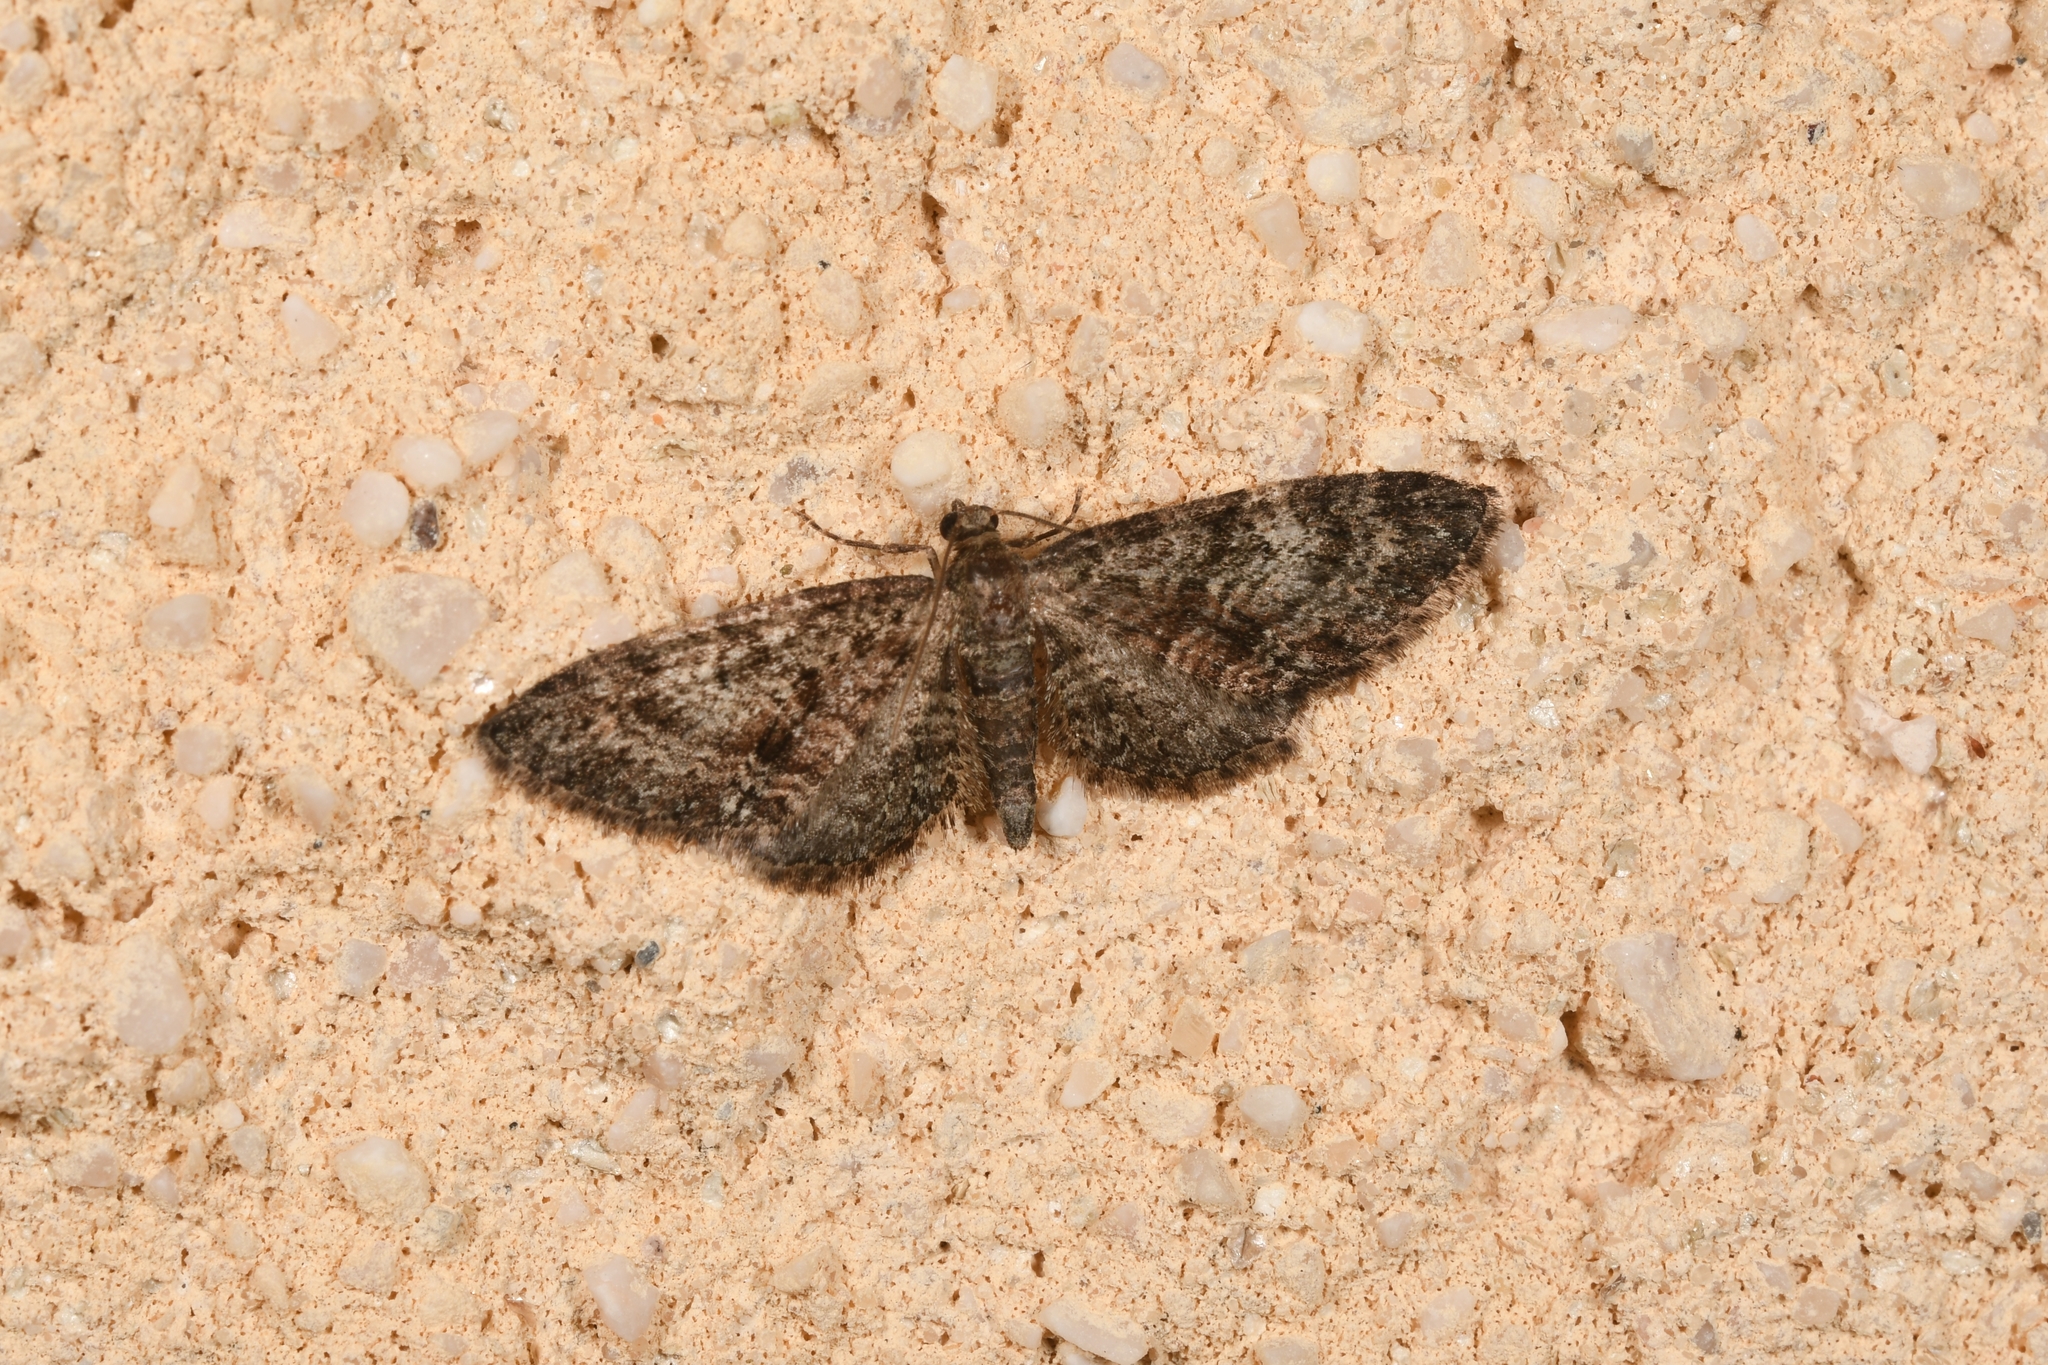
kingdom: Animalia
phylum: Arthropoda
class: Insecta
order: Lepidoptera
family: Geometridae
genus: Eupithecia
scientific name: Eupithecia cocciferata
